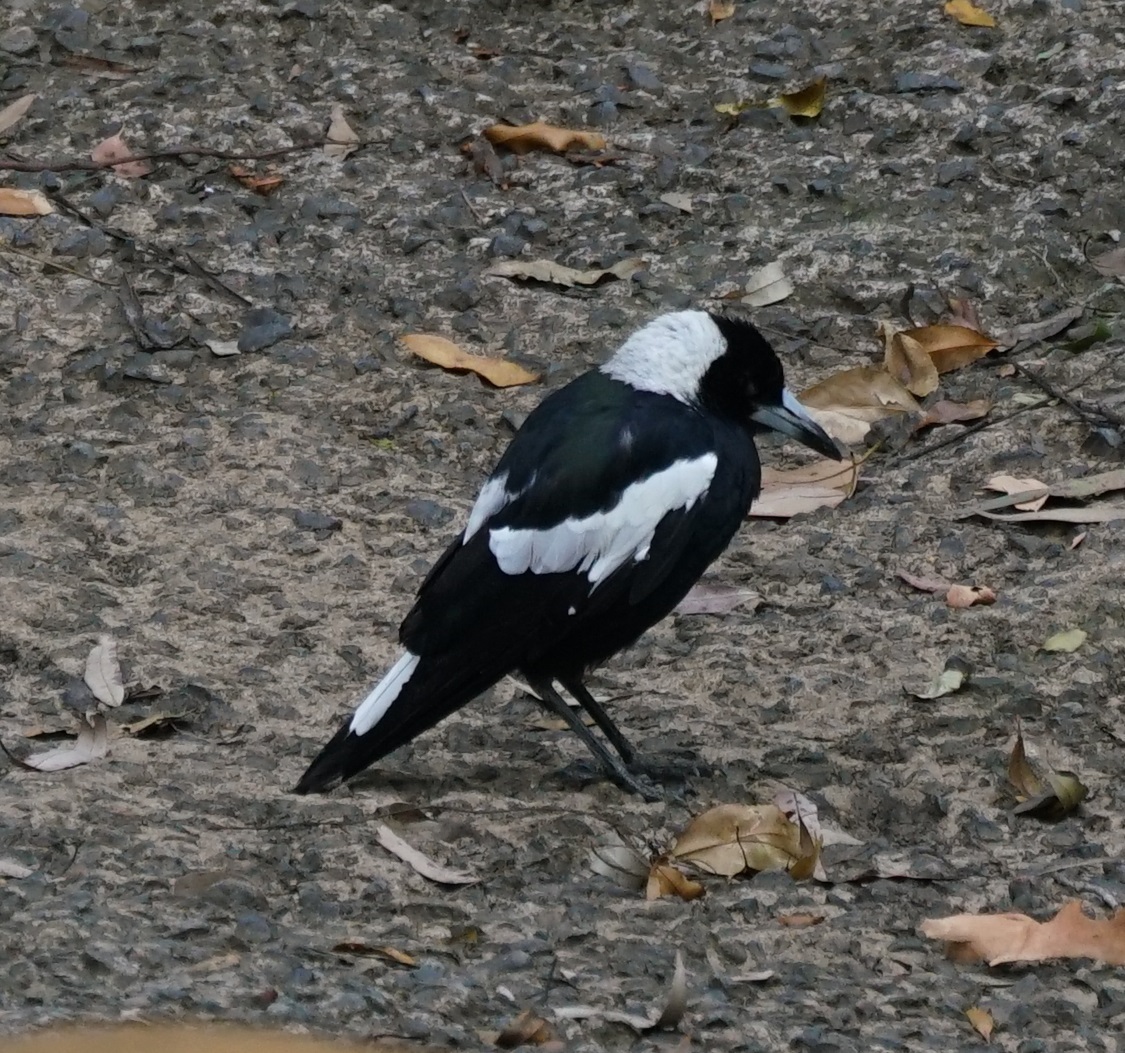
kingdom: Animalia
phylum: Chordata
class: Aves
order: Passeriformes
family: Cracticidae
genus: Gymnorhina
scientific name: Gymnorhina tibicen
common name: Australian magpie
